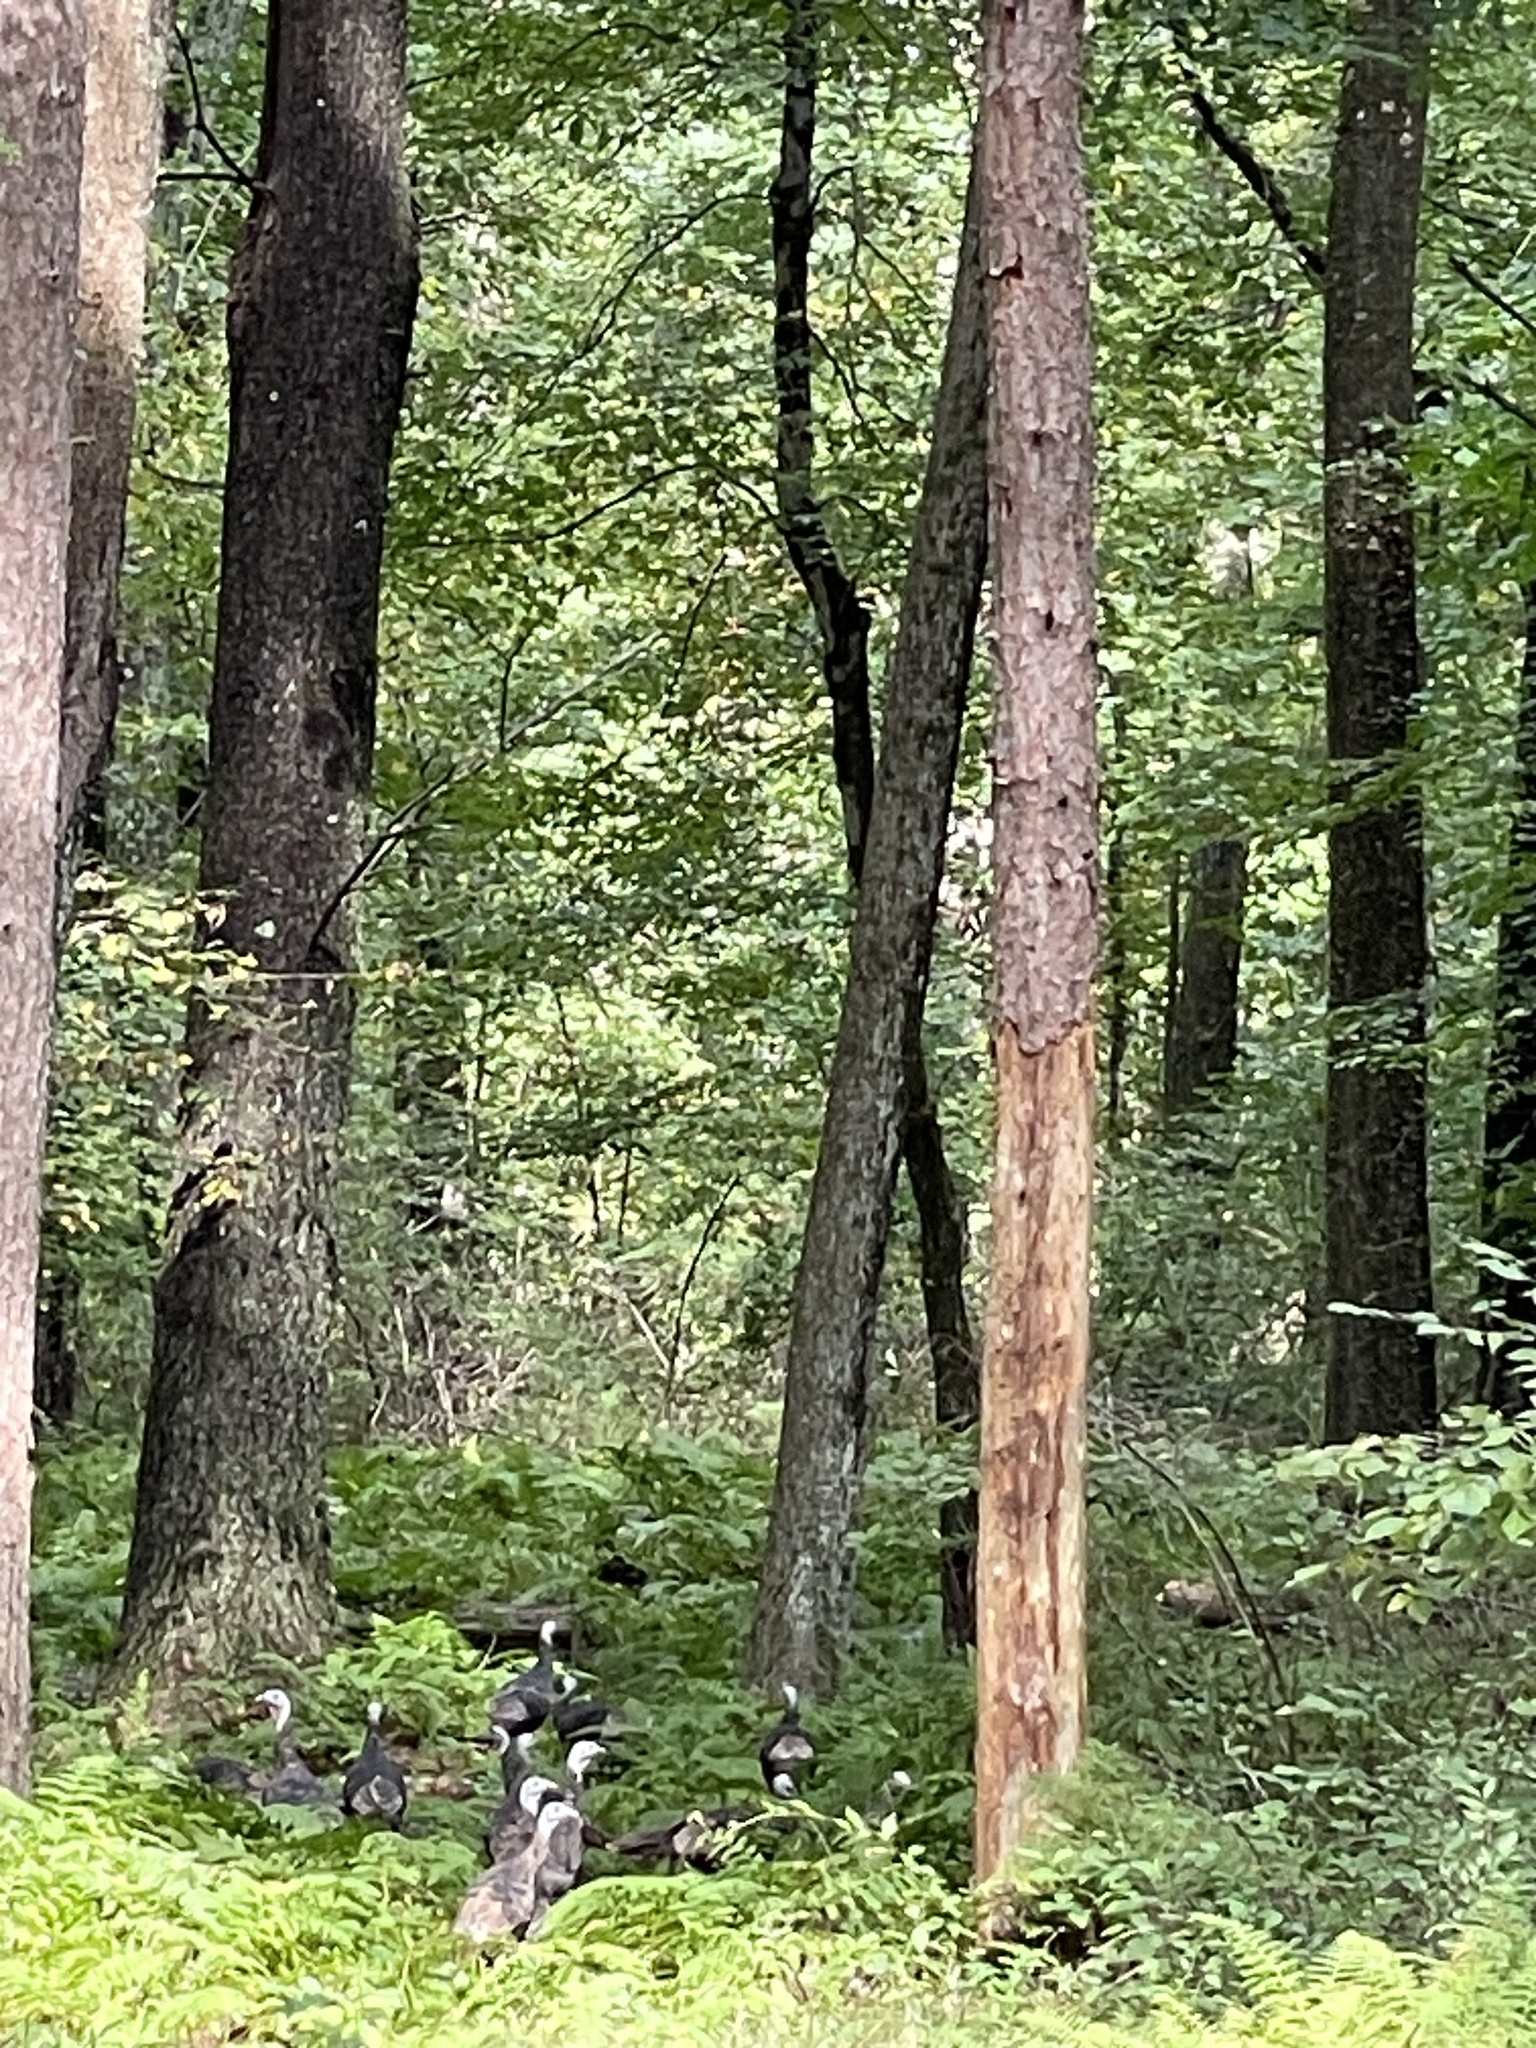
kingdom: Animalia
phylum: Chordata
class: Aves
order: Galliformes
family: Phasianidae
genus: Meleagris
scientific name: Meleagris gallopavo
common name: Wild turkey
